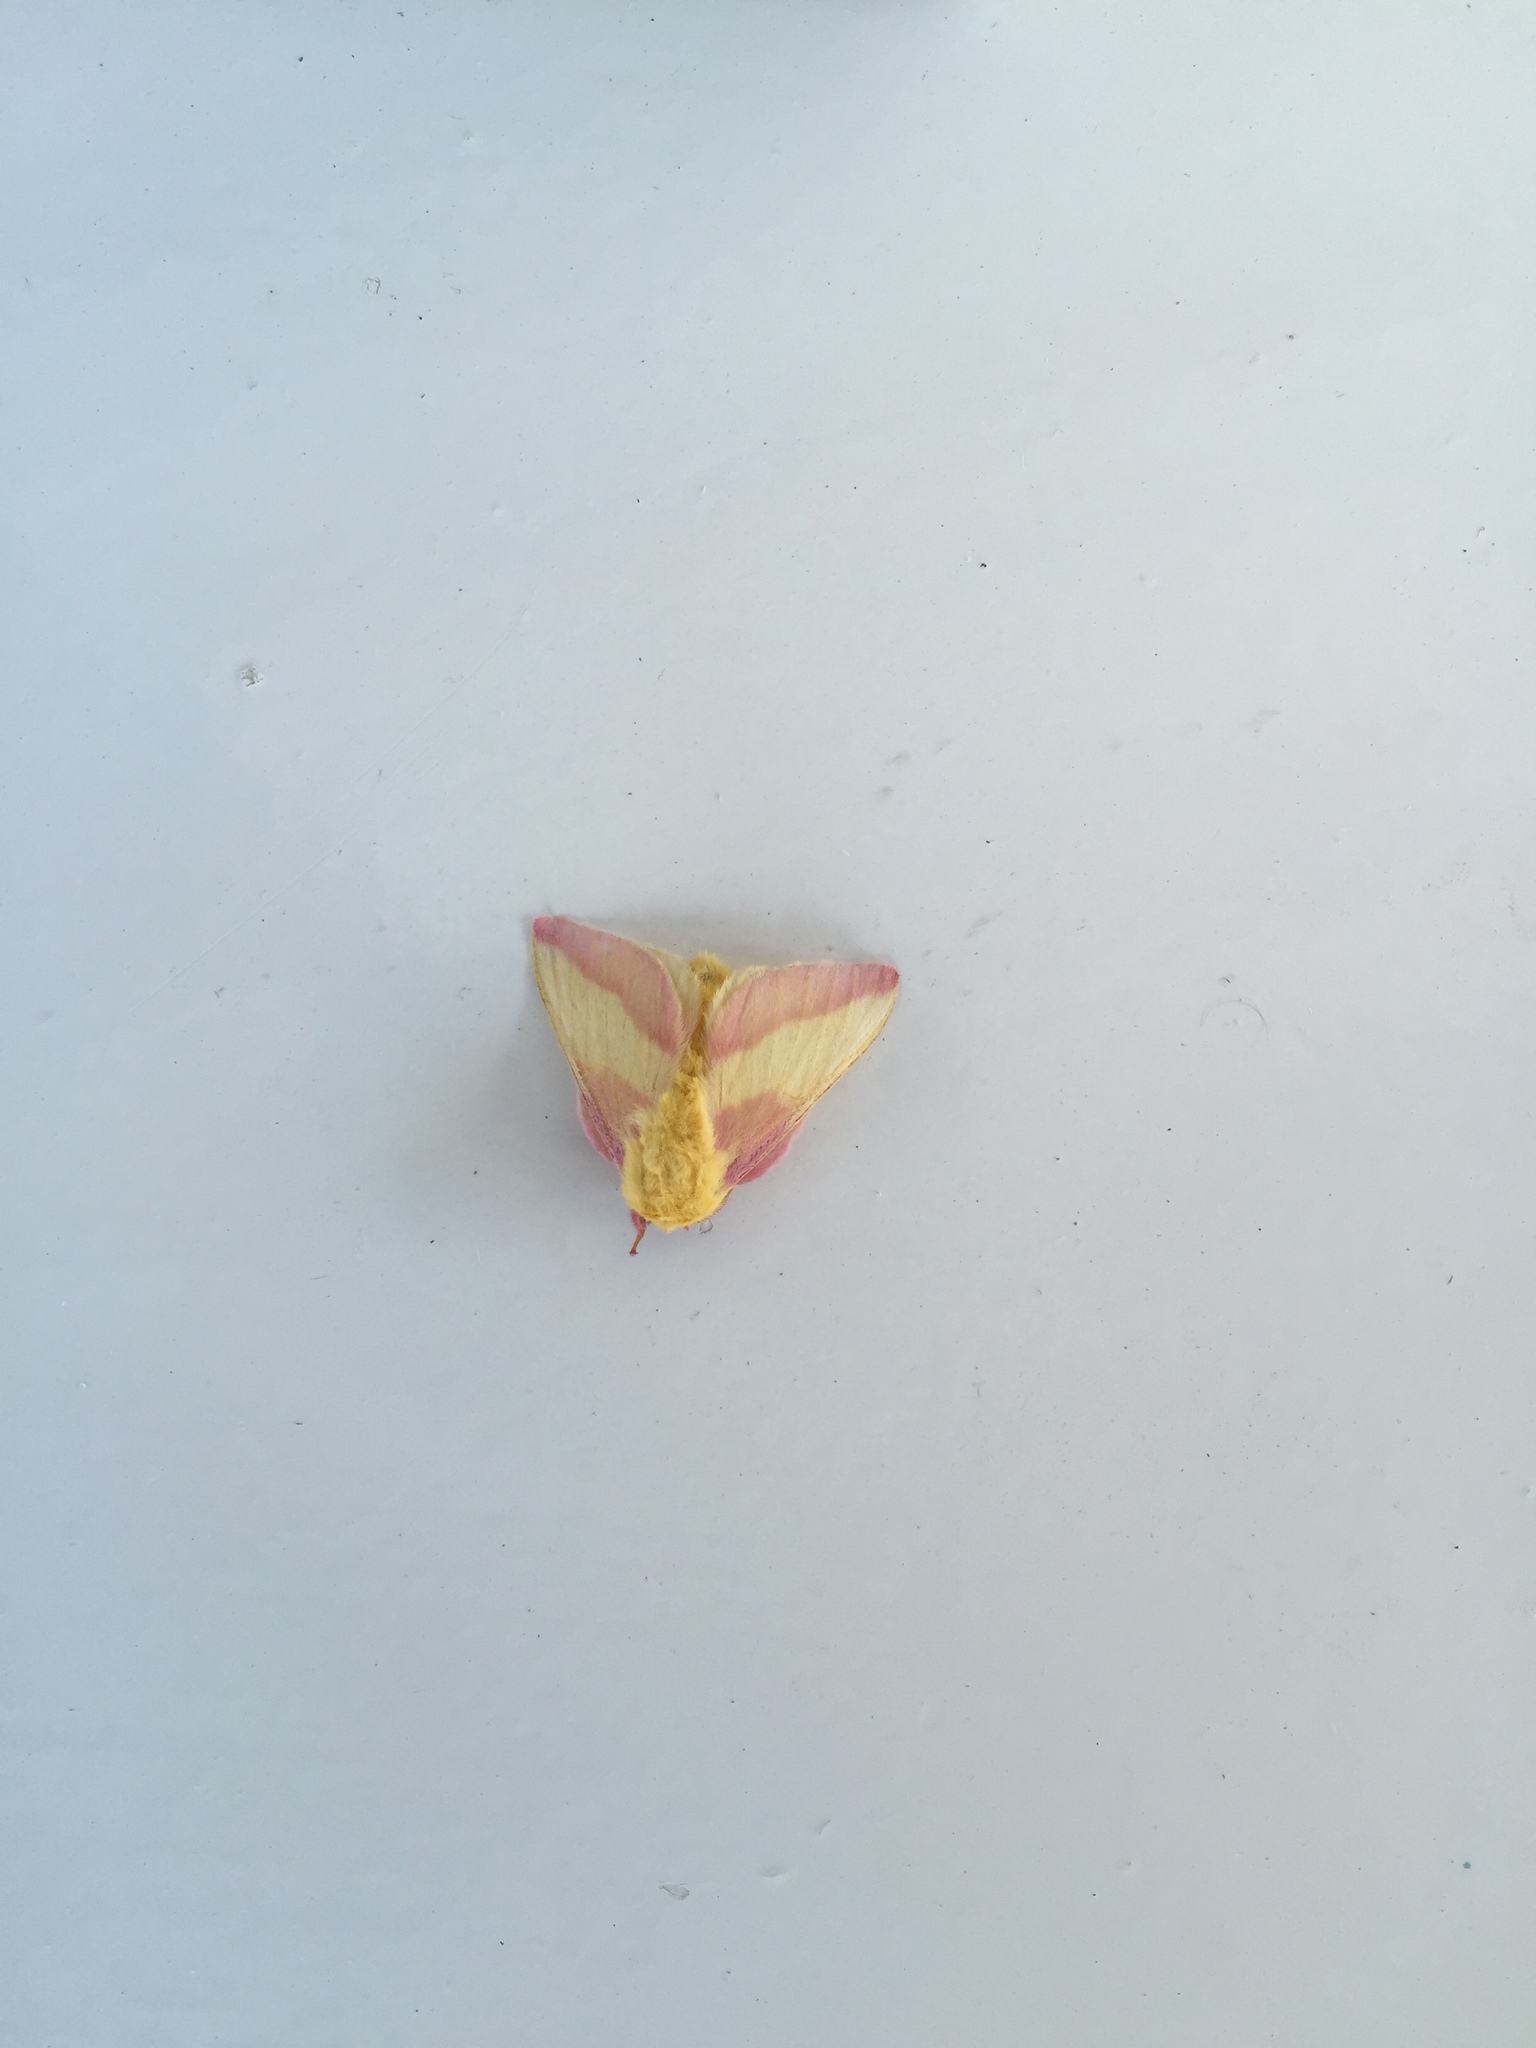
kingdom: Animalia
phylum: Arthropoda
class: Insecta
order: Lepidoptera
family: Saturniidae
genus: Dryocampa
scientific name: Dryocampa rubicunda
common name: Rosy maple moth
